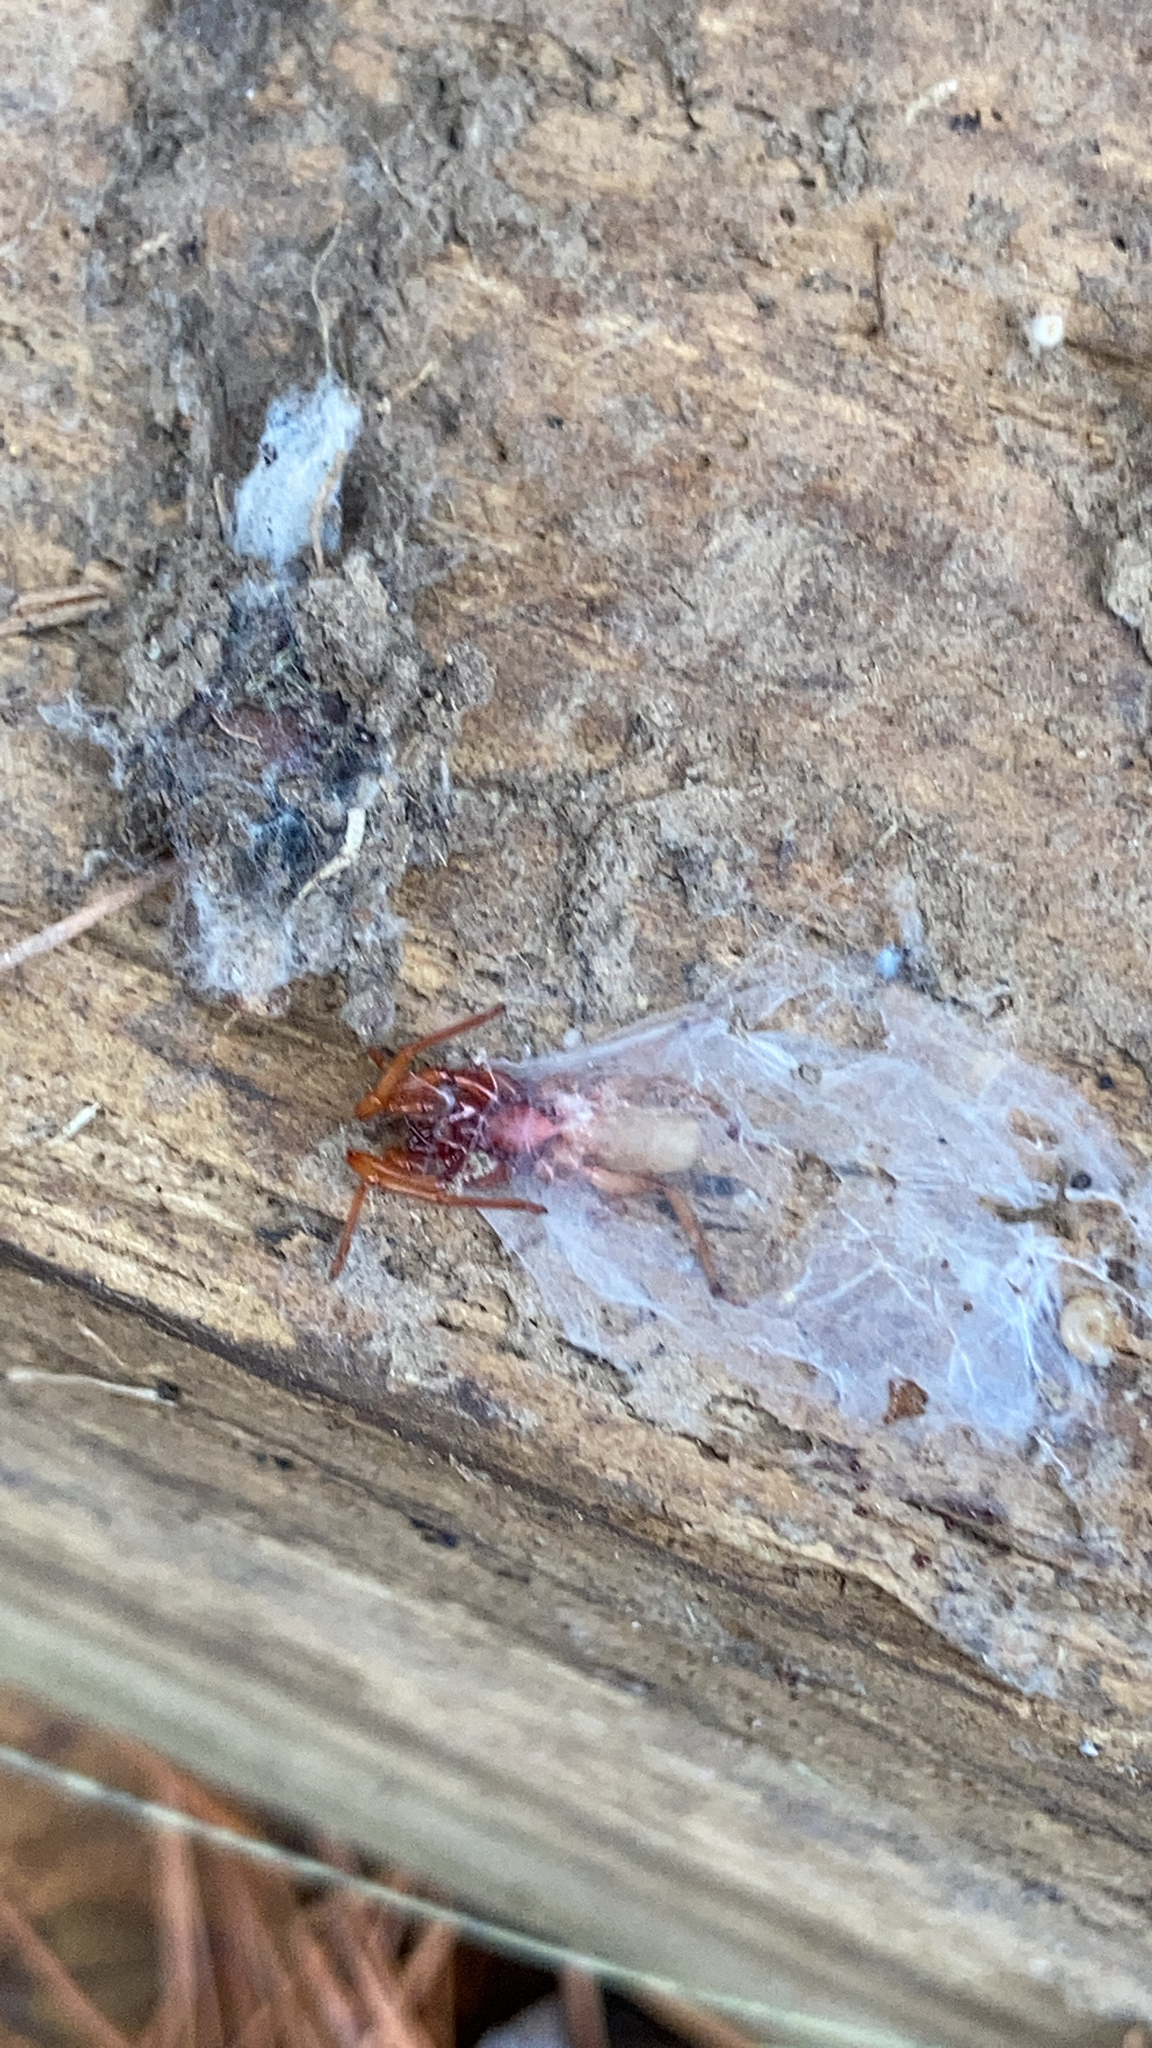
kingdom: Animalia
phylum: Arthropoda
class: Arachnida
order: Araneae
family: Dysderidae
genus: Dysdera
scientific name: Dysdera crocata
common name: Woodlouse spider
